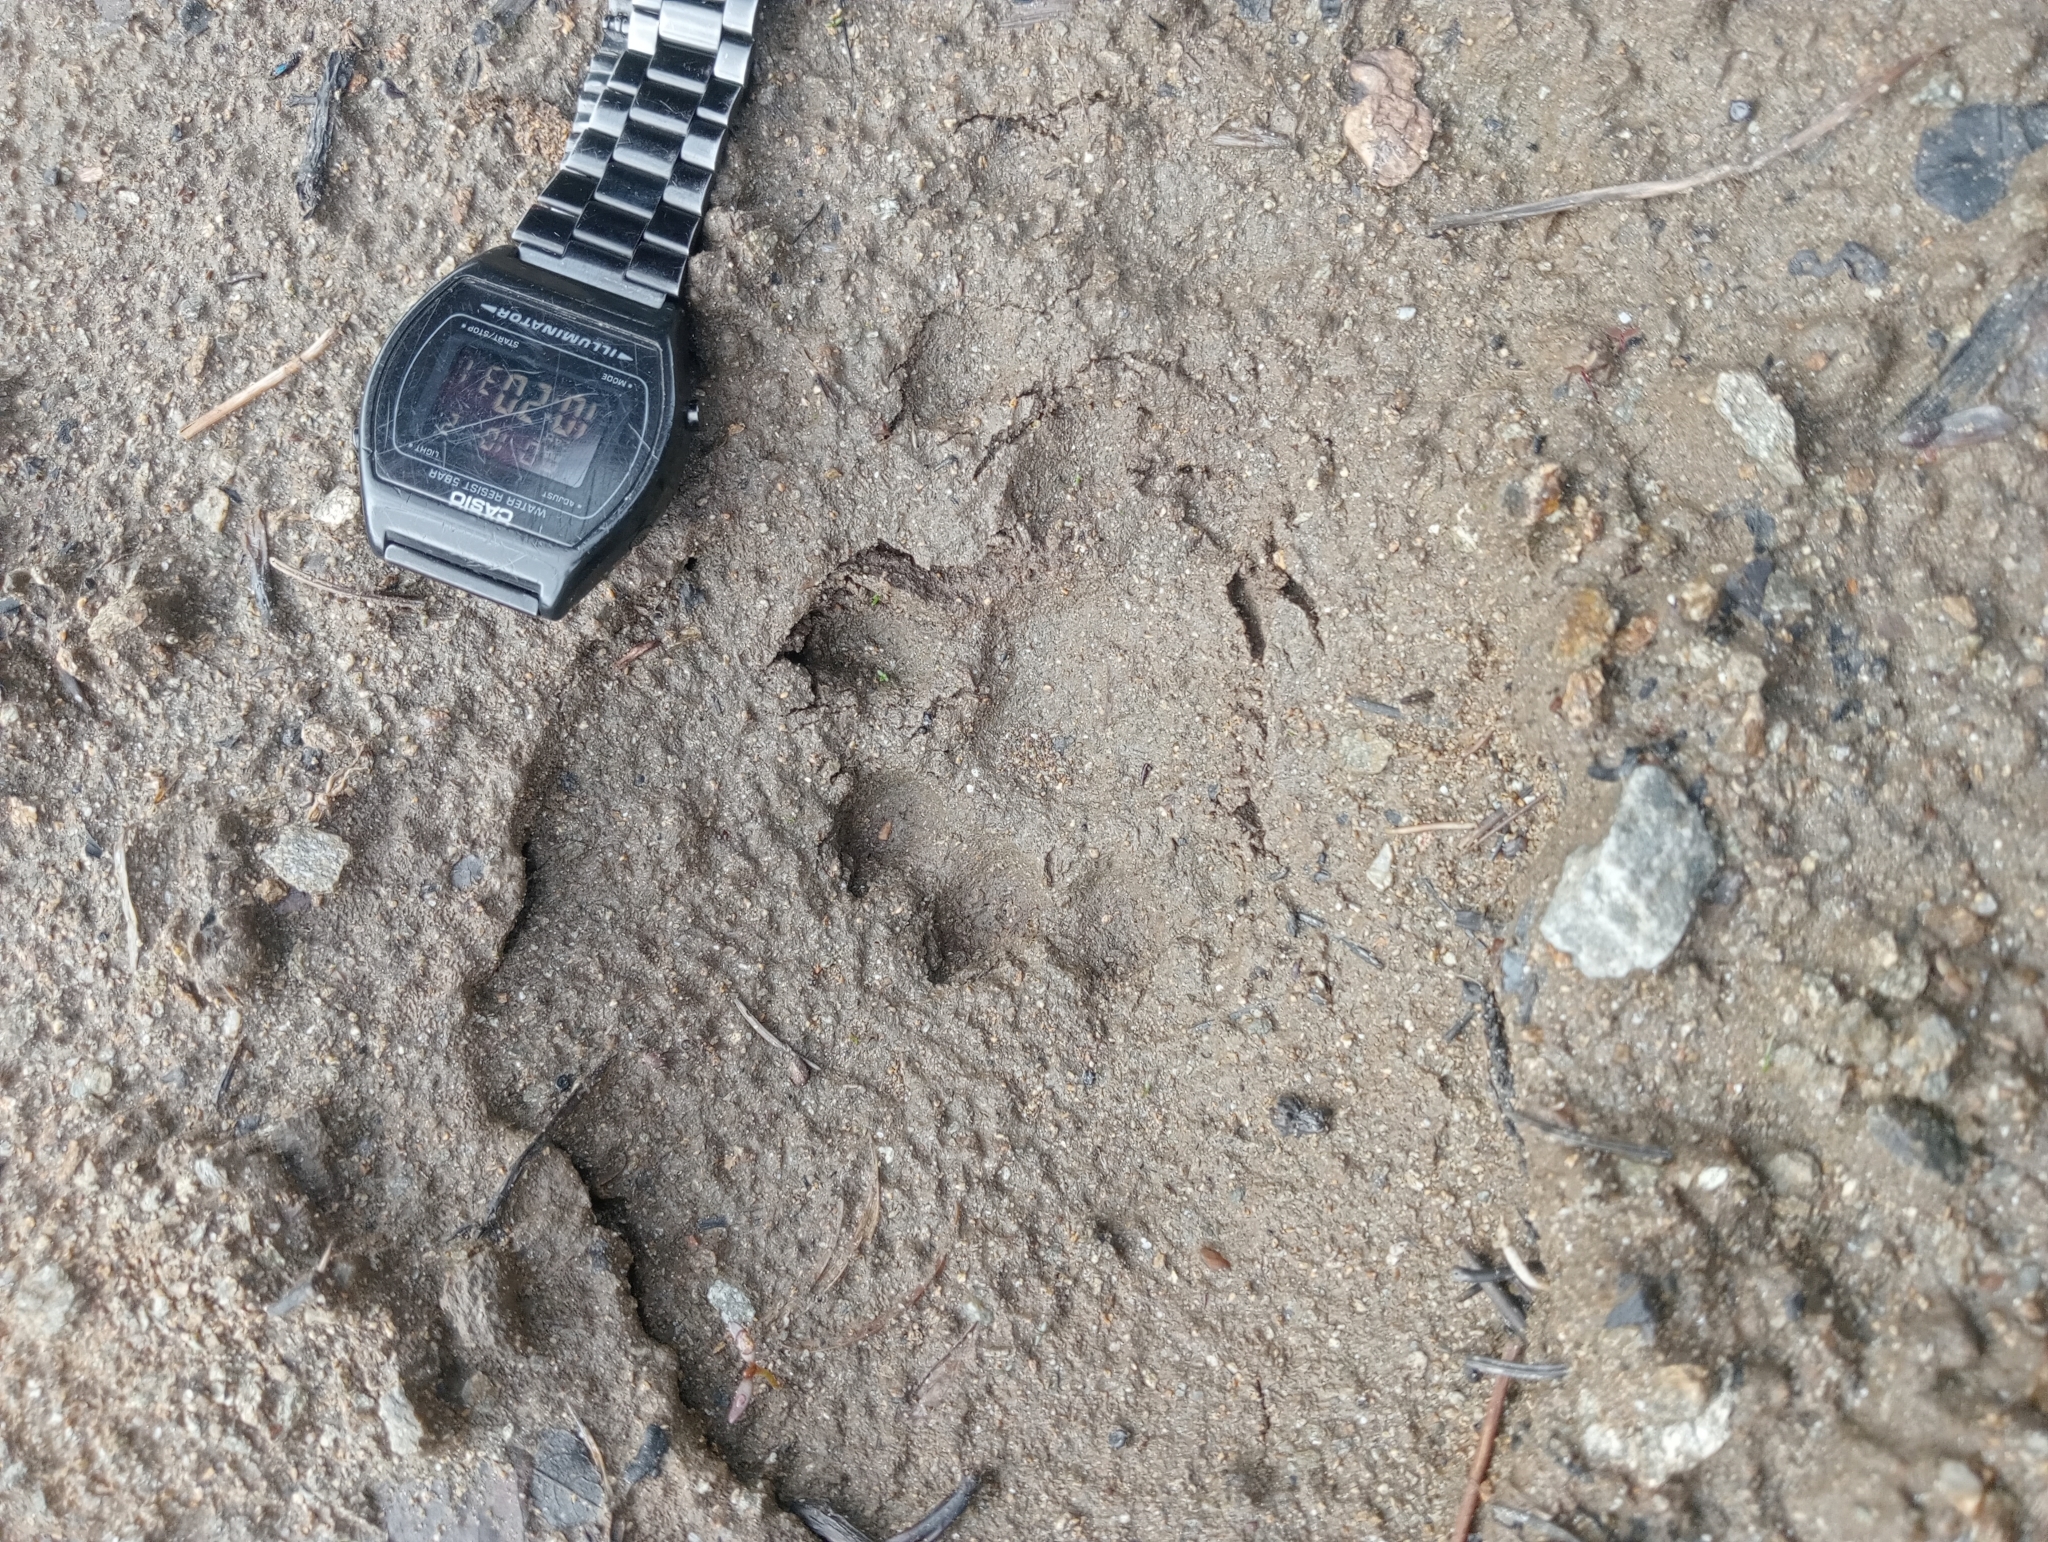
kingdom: Animalia
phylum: Chordata
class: Mammalia
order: Carnivora
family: Mustelidae
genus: Lutra
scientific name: Lutra lutra
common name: European otter
